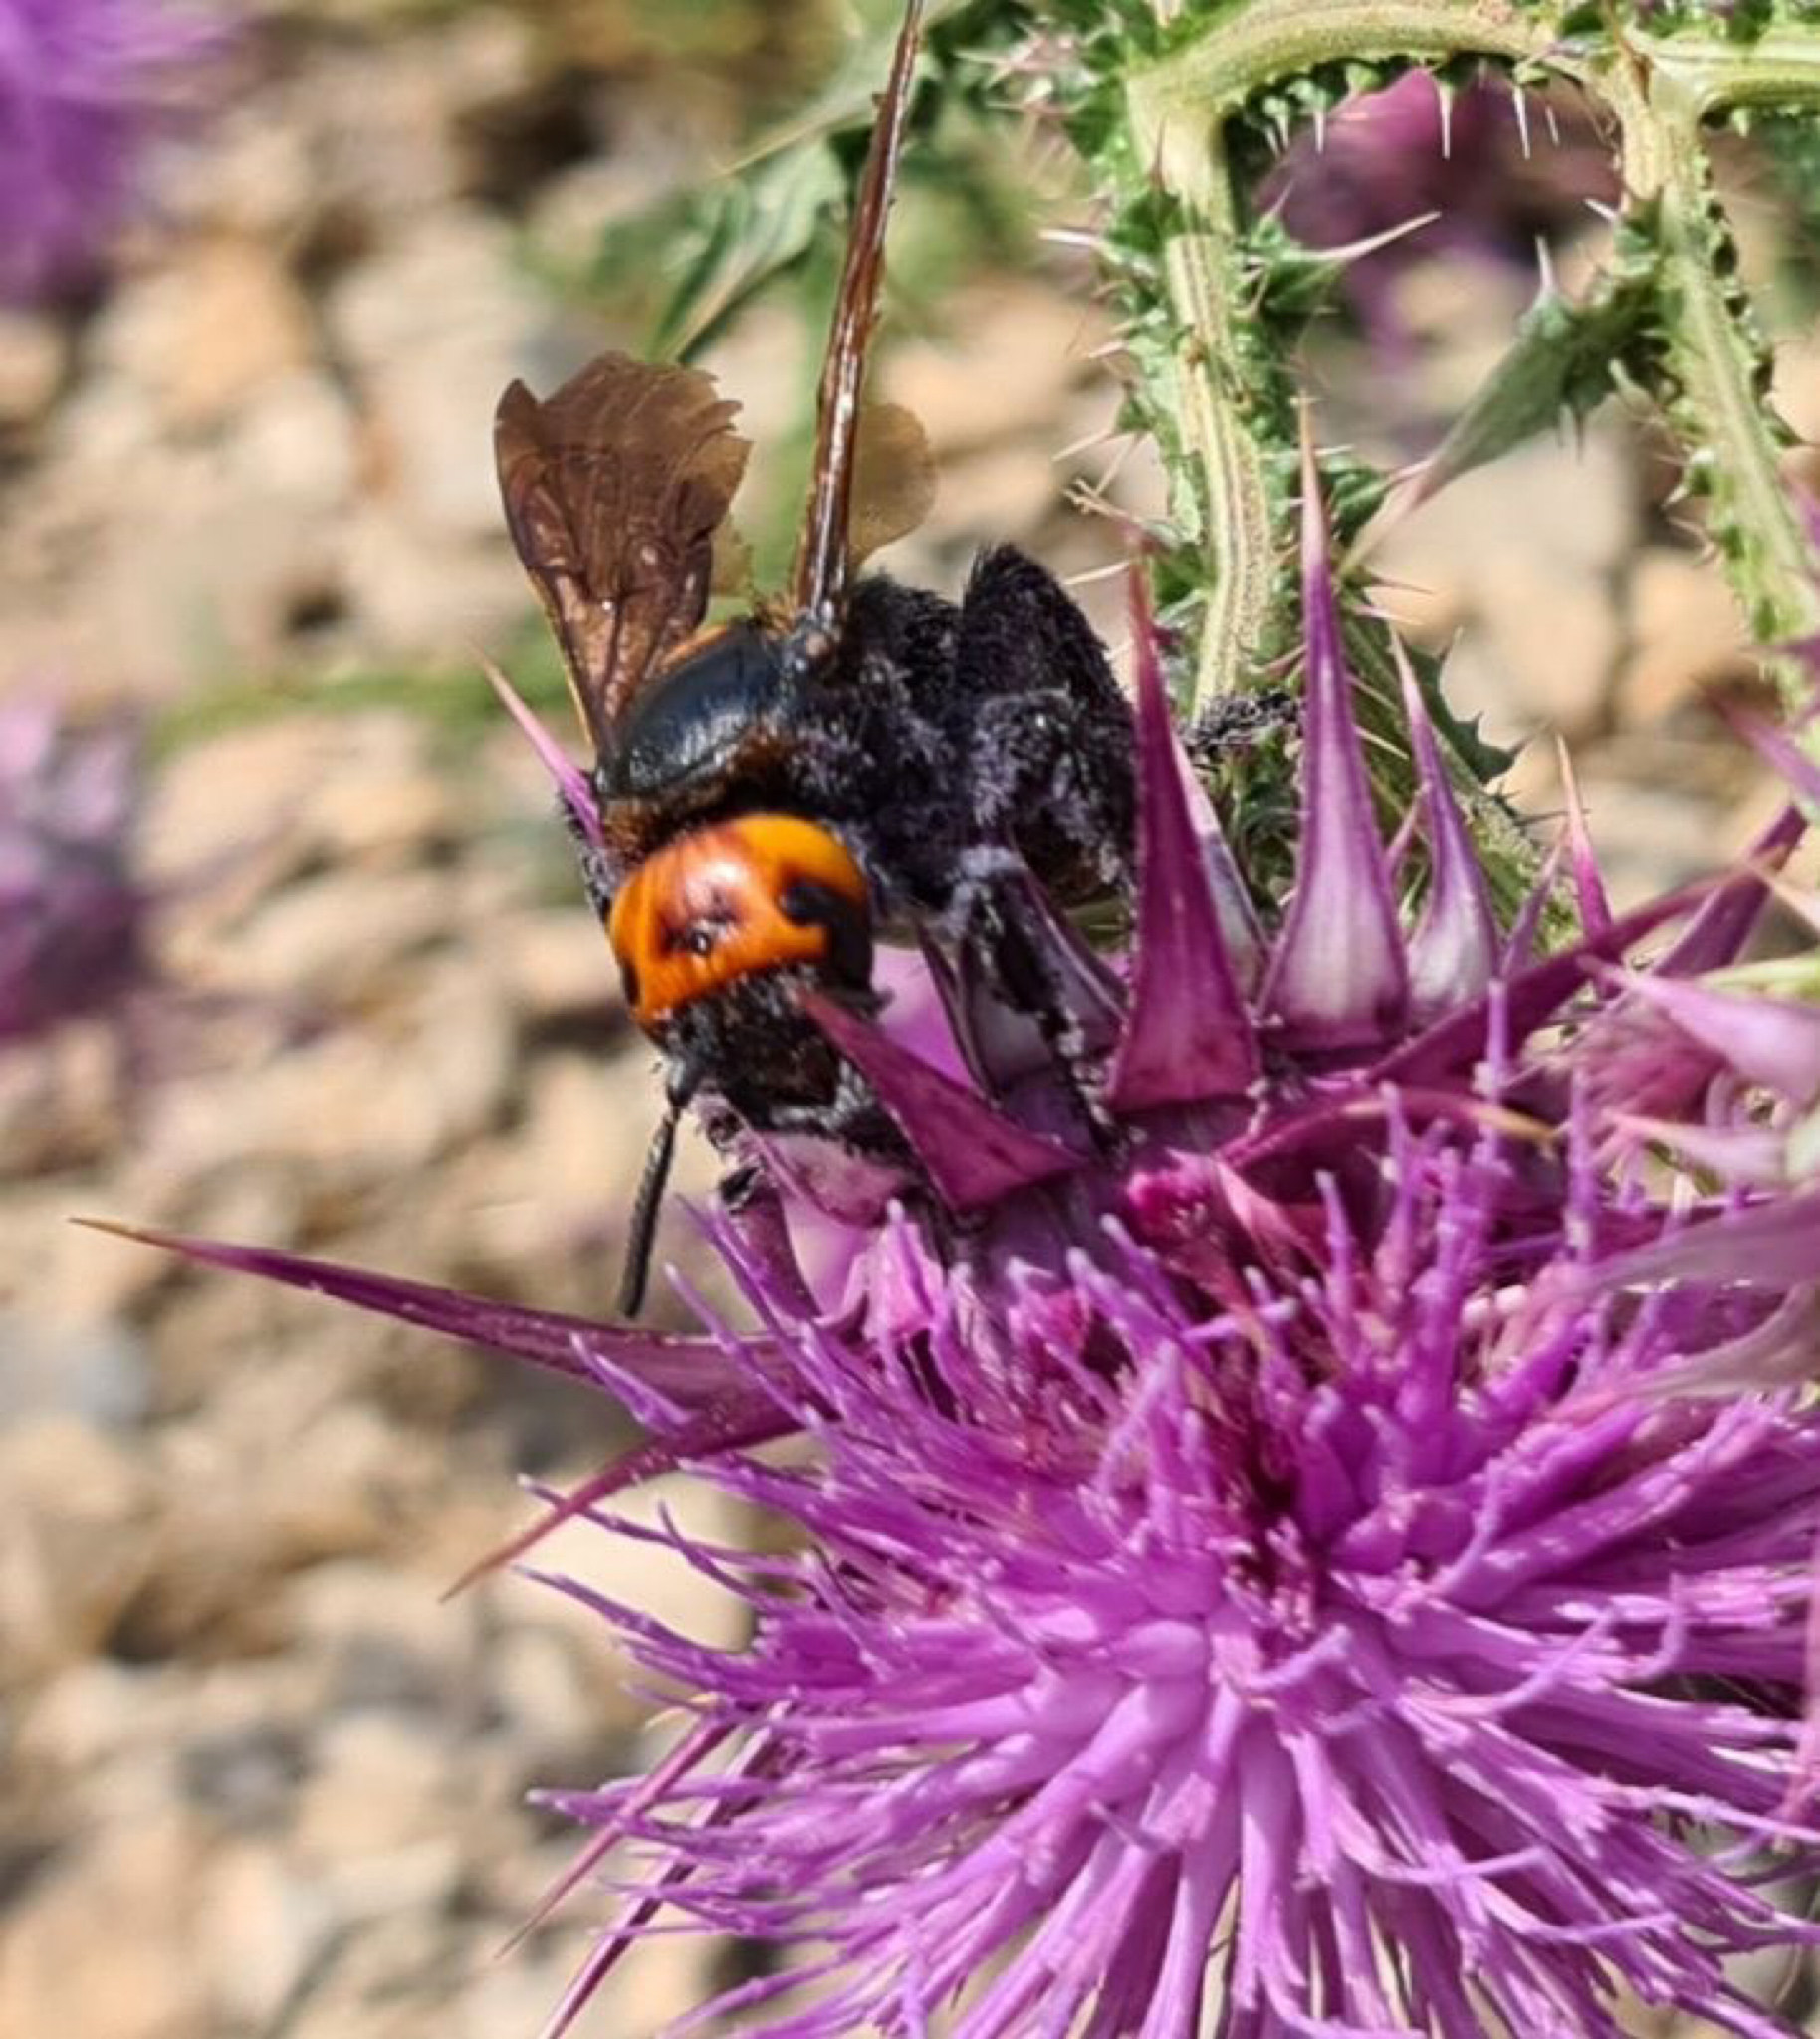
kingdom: Animalia
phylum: Arthropoda
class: Insecta
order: Hymenoptera
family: Scoliidae
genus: Megascolia
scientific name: Megascolia maculata
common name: Mammoth wasp
